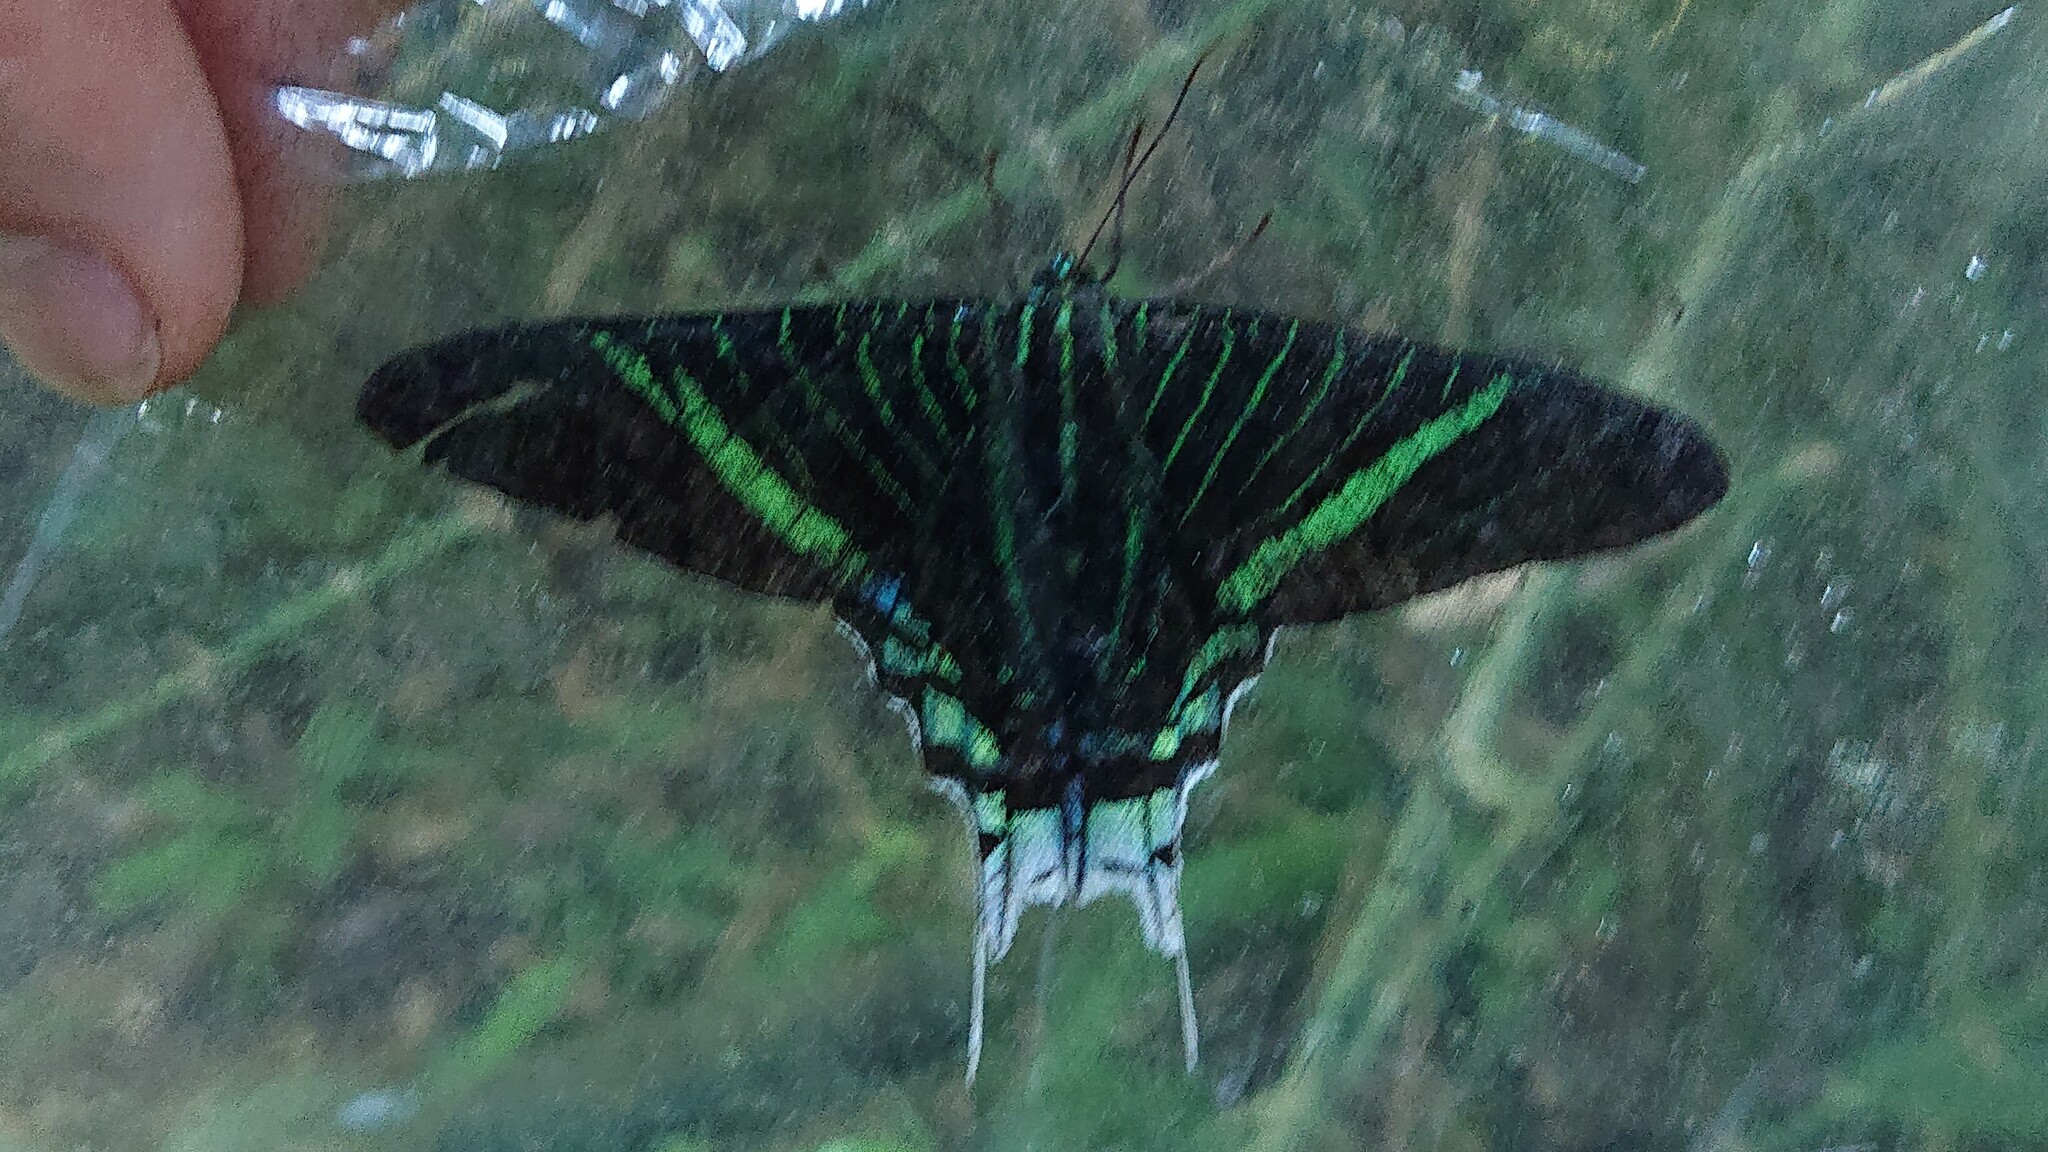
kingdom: Animalia
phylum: Arthropoda
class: Insecta
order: Lepidoptera
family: Uraniidae
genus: Urania
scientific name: Urania leilus
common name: Peacock moth
